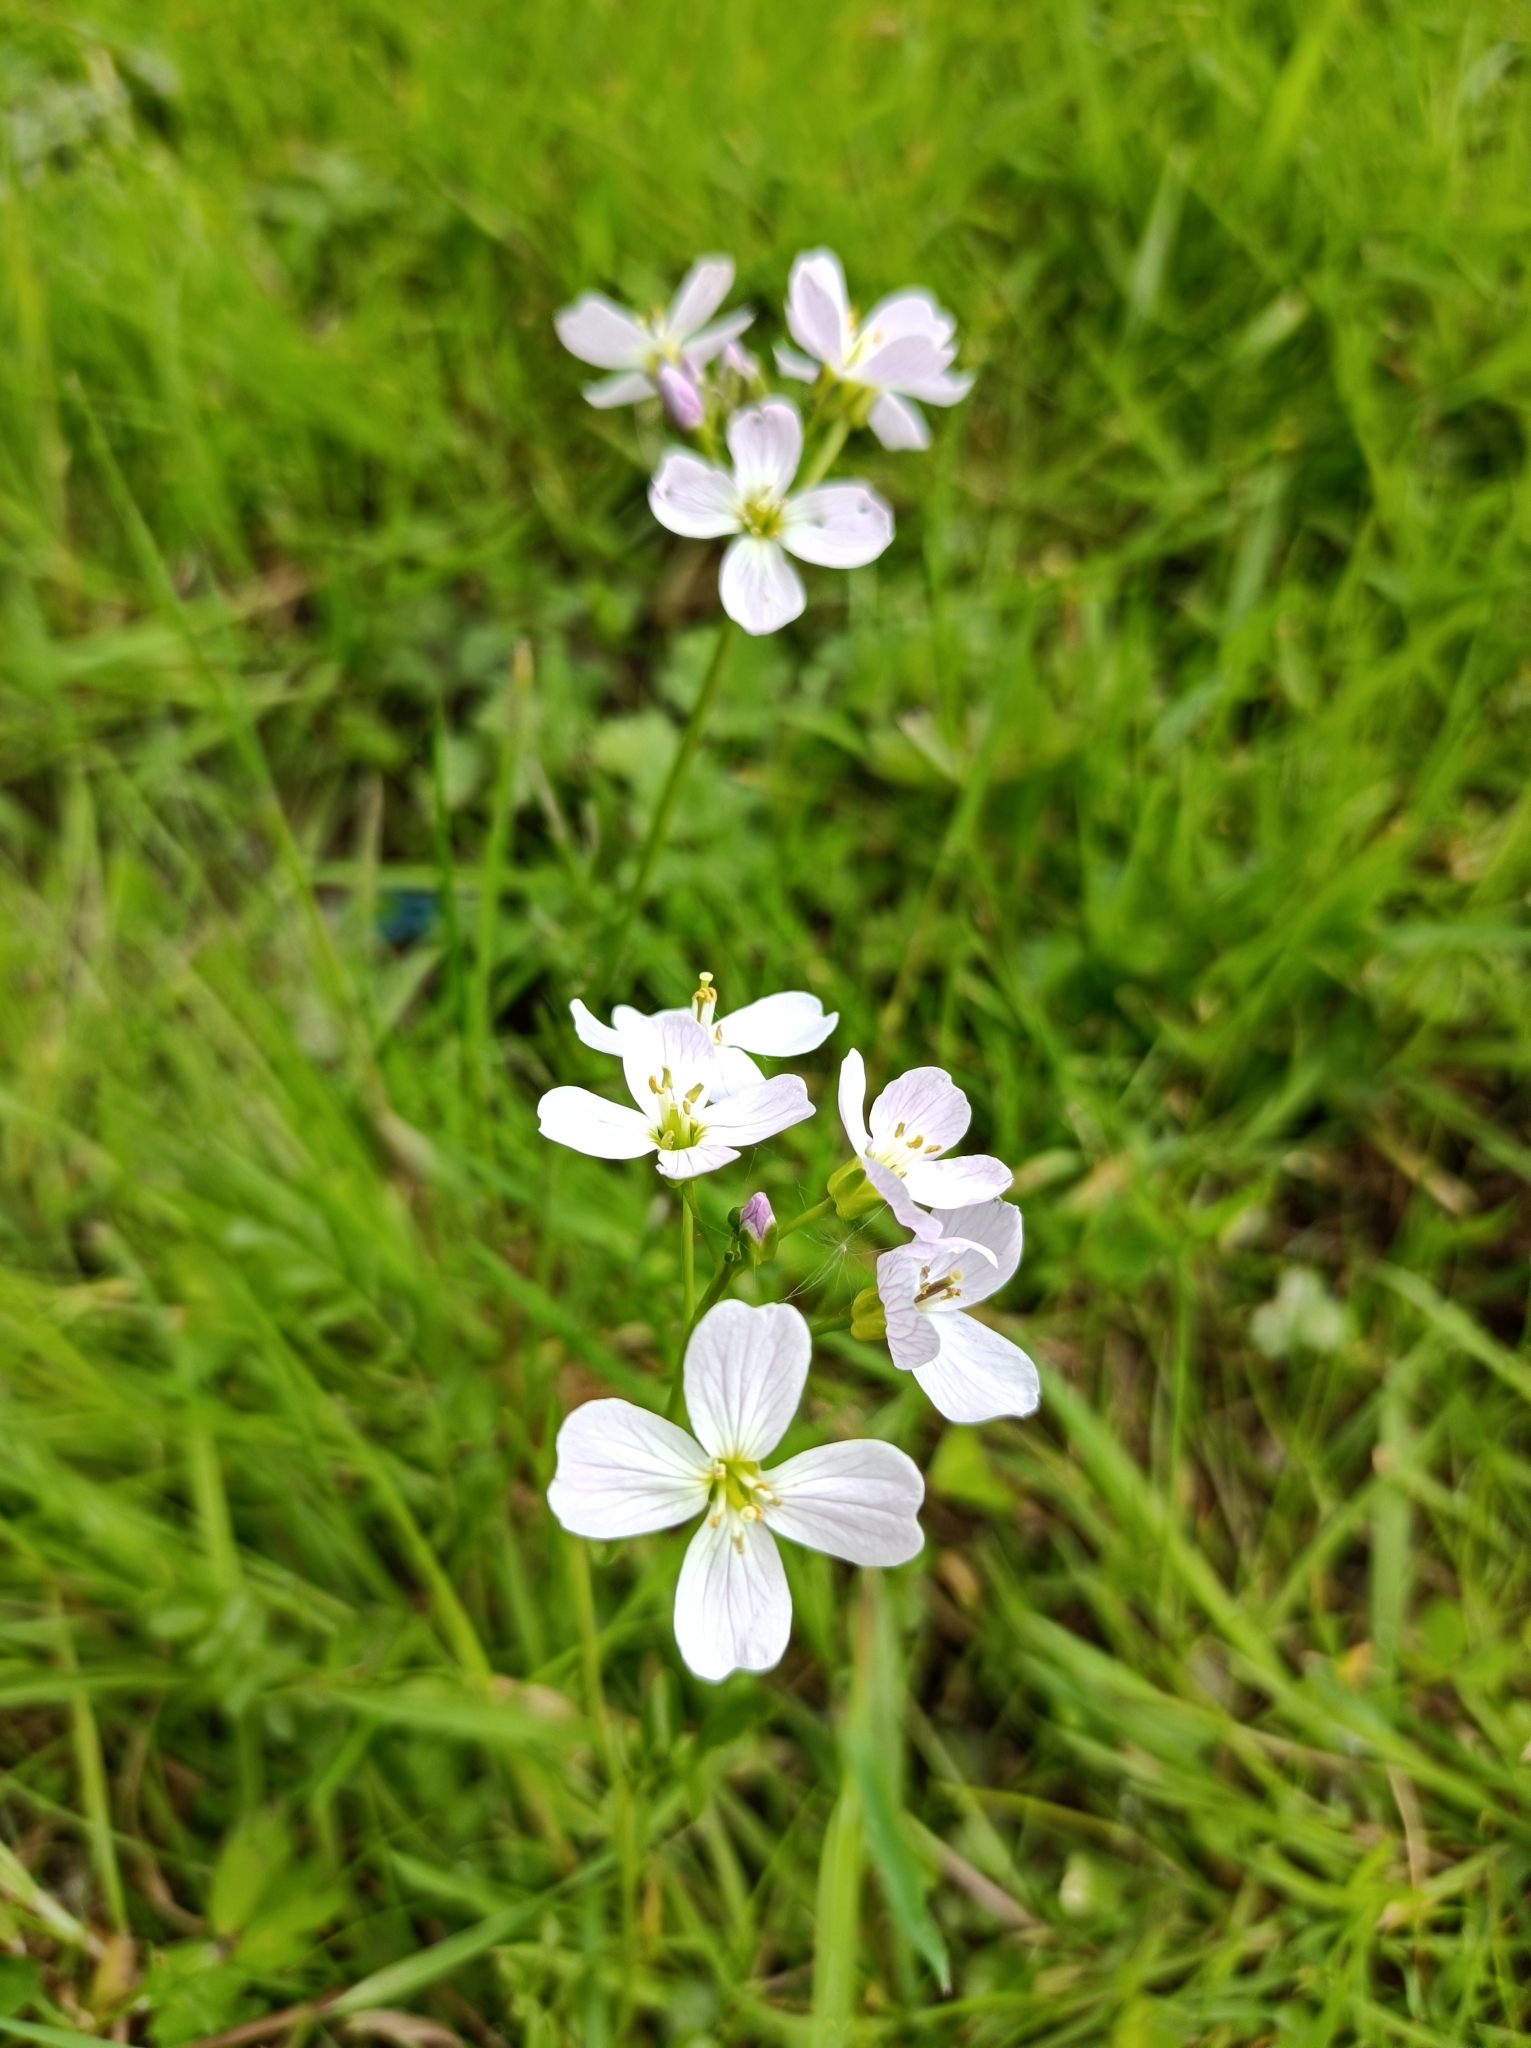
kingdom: Plantae
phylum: Tracheophyta
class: Magnoliopsida
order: Brassicales
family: Brassicaceae
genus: Cardamine
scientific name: Cardamine pratensis
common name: Cuckoo flower
